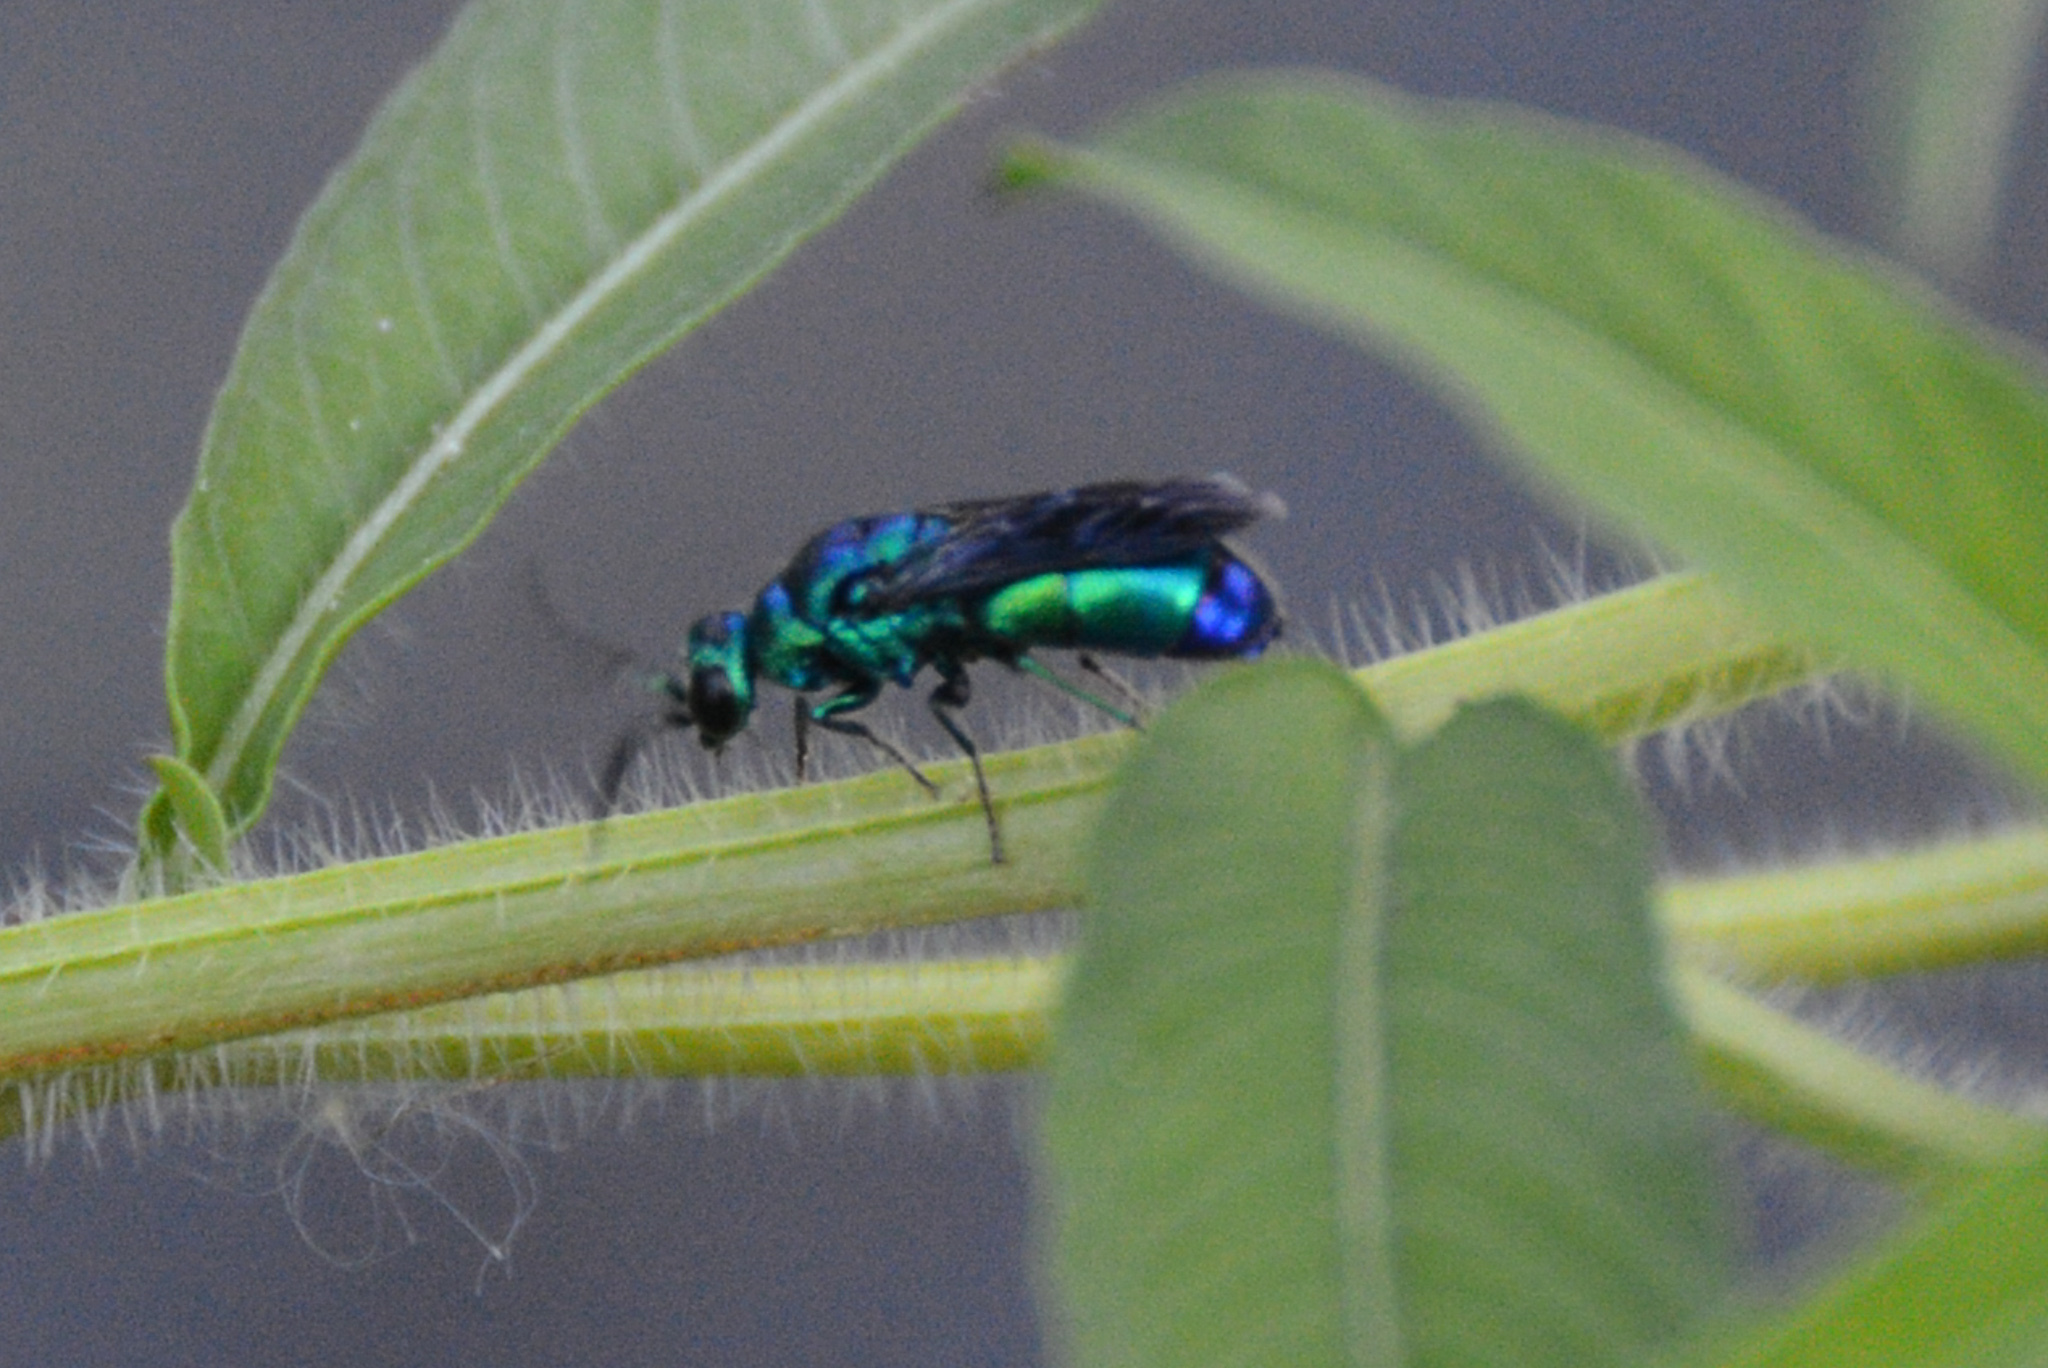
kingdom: Animalia
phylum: Arthropoda
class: Insecta
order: Hymenoptera
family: Chrysididae
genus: Chrysis
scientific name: Chrysis angolensis
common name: Cuckoo wasp
